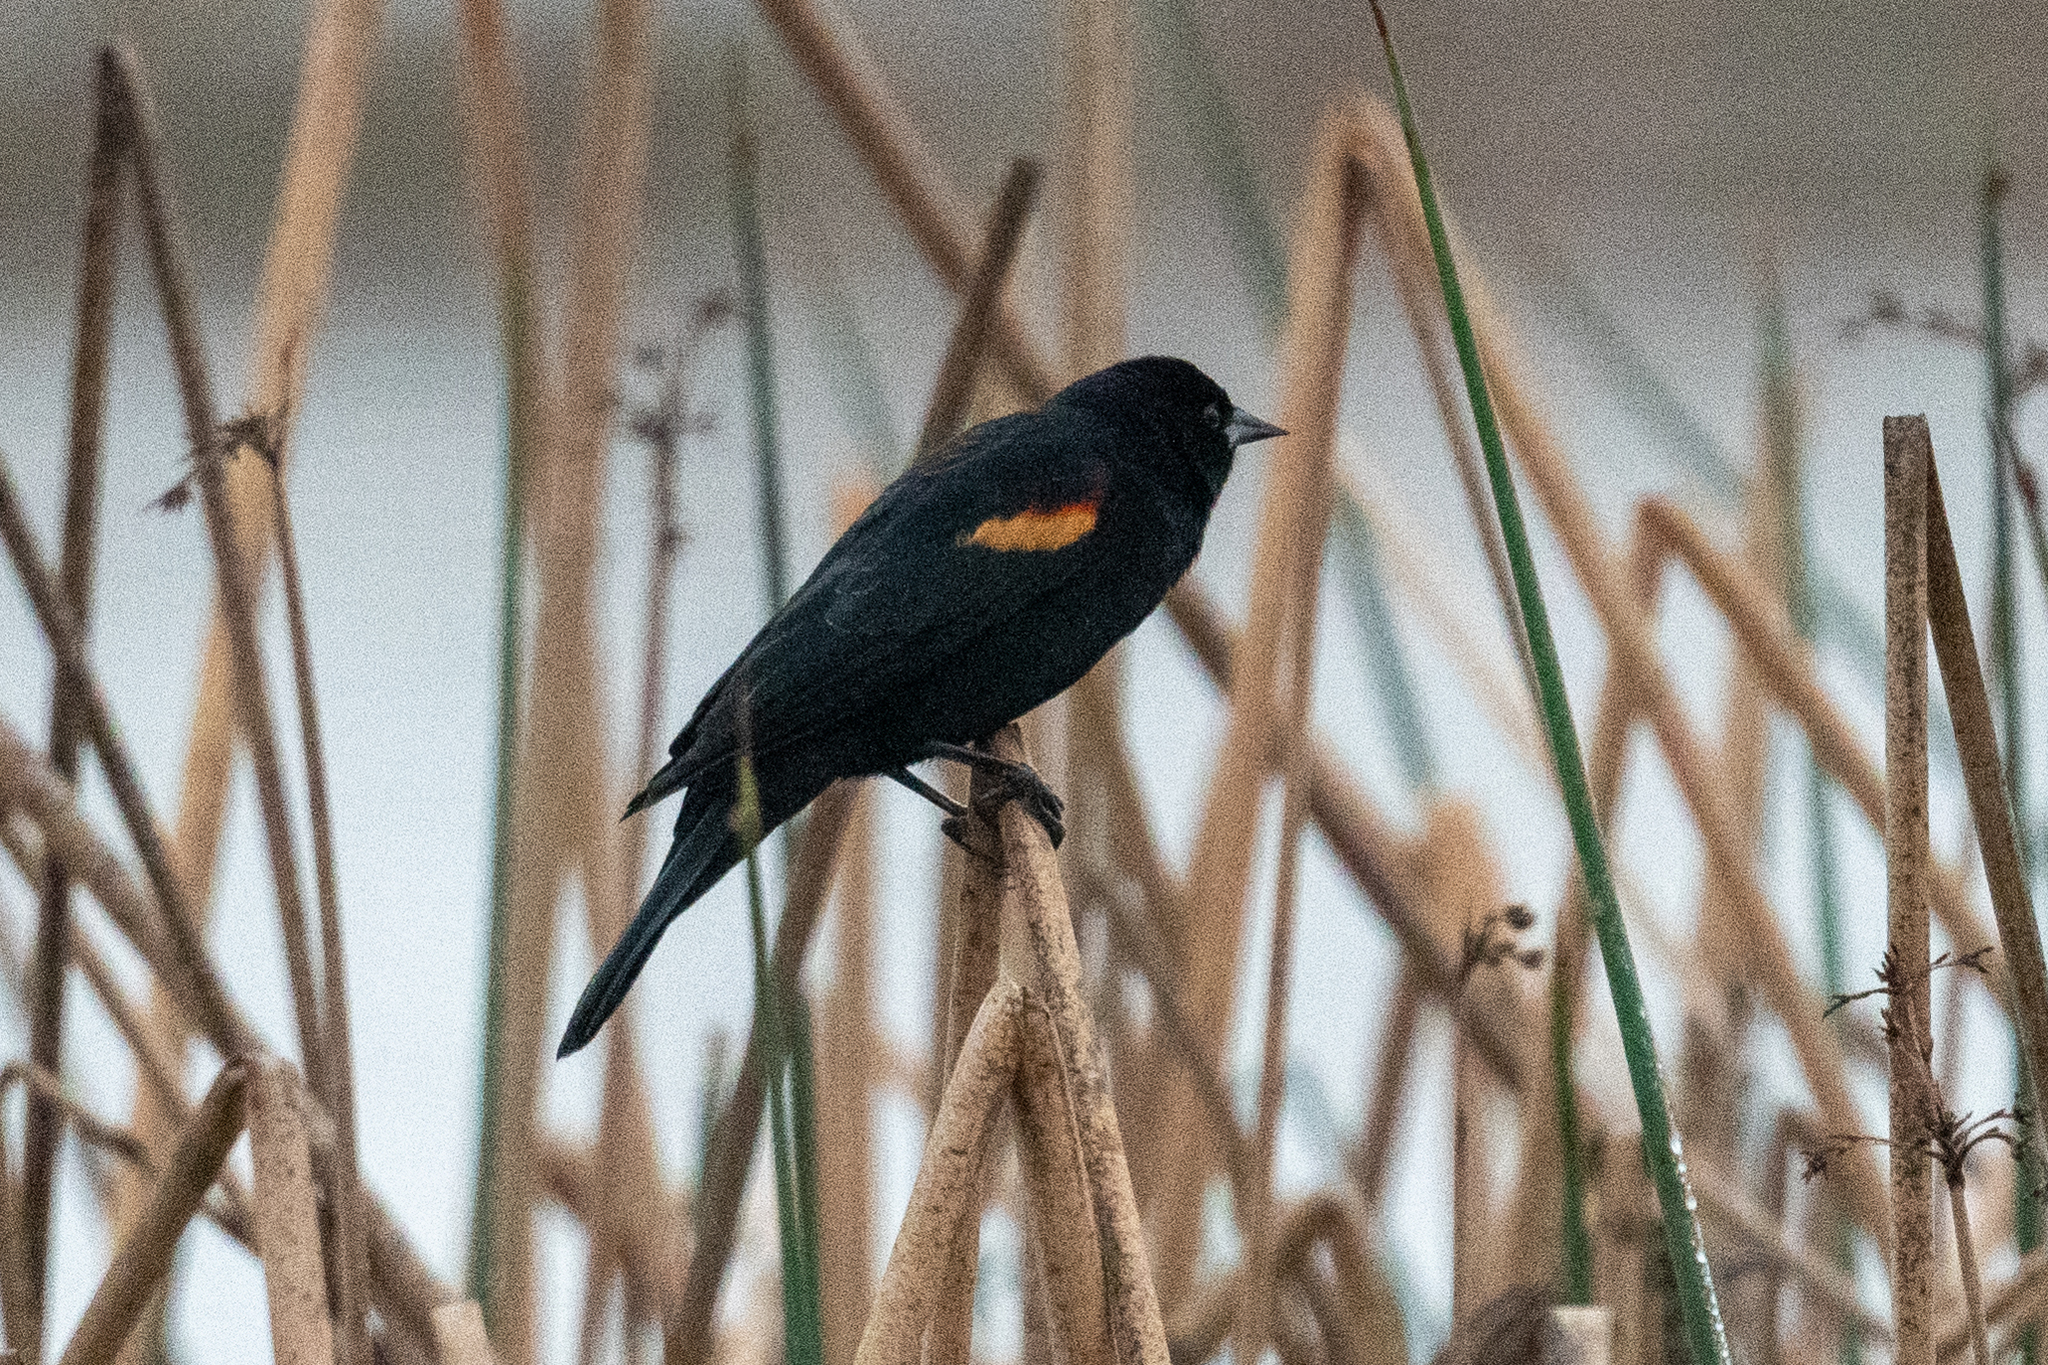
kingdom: Animalia
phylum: Chordata
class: Aves
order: Passeriformes
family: Icteridae
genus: Agelaius
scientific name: Agelaius phoeniceus
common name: Red-winged blackbird
